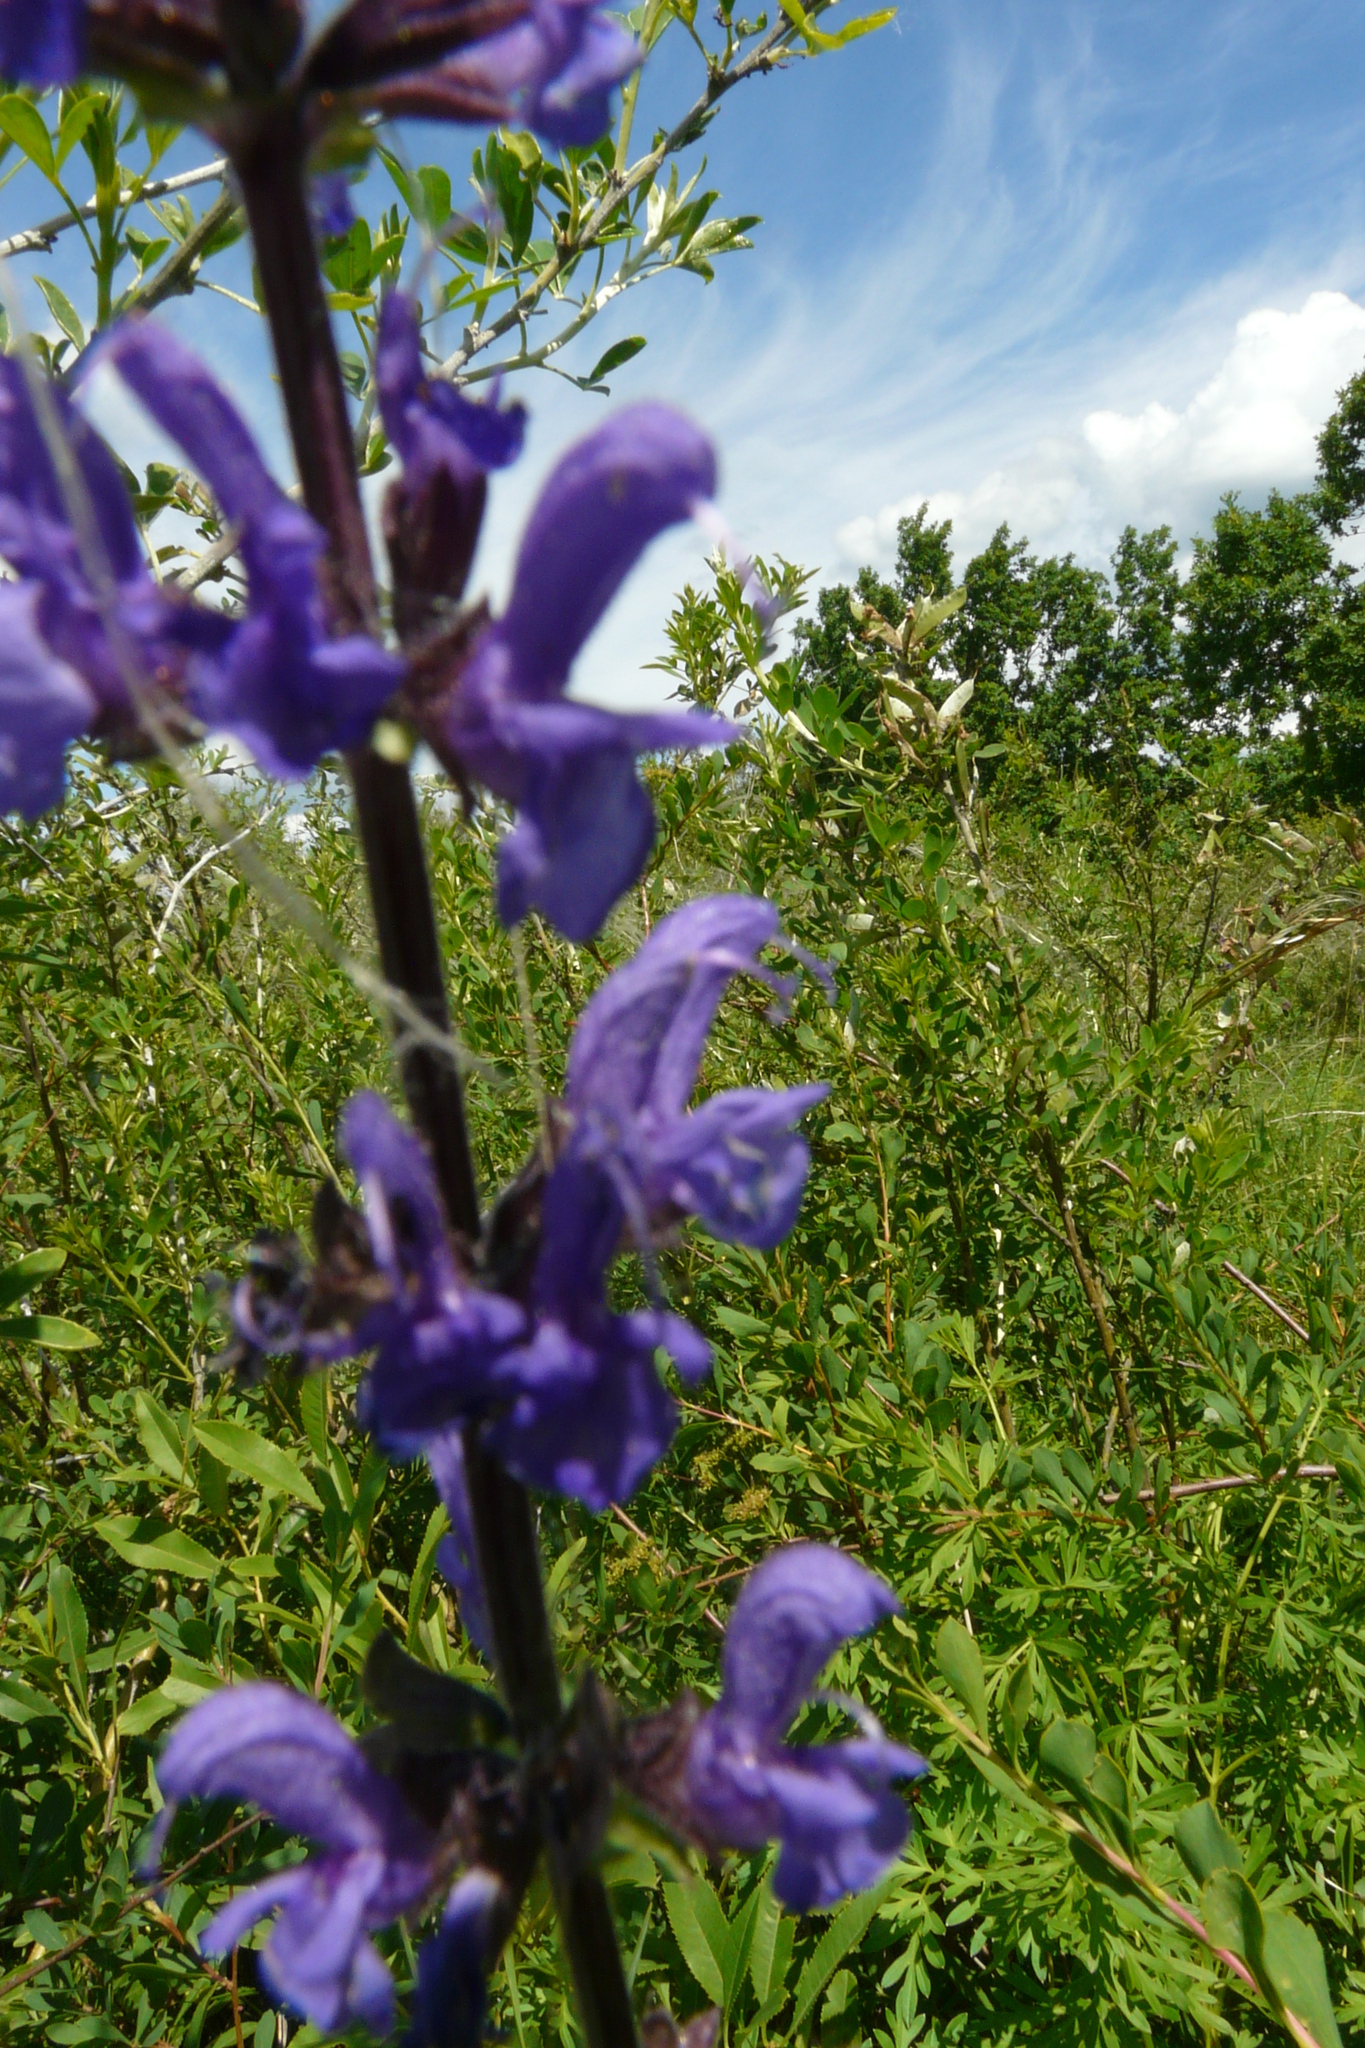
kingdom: Plantae
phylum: Tracheophyta
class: Magnoliopsida
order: Lamiales
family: Lamiaceae
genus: Salvia
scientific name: Salvia dumetorum
